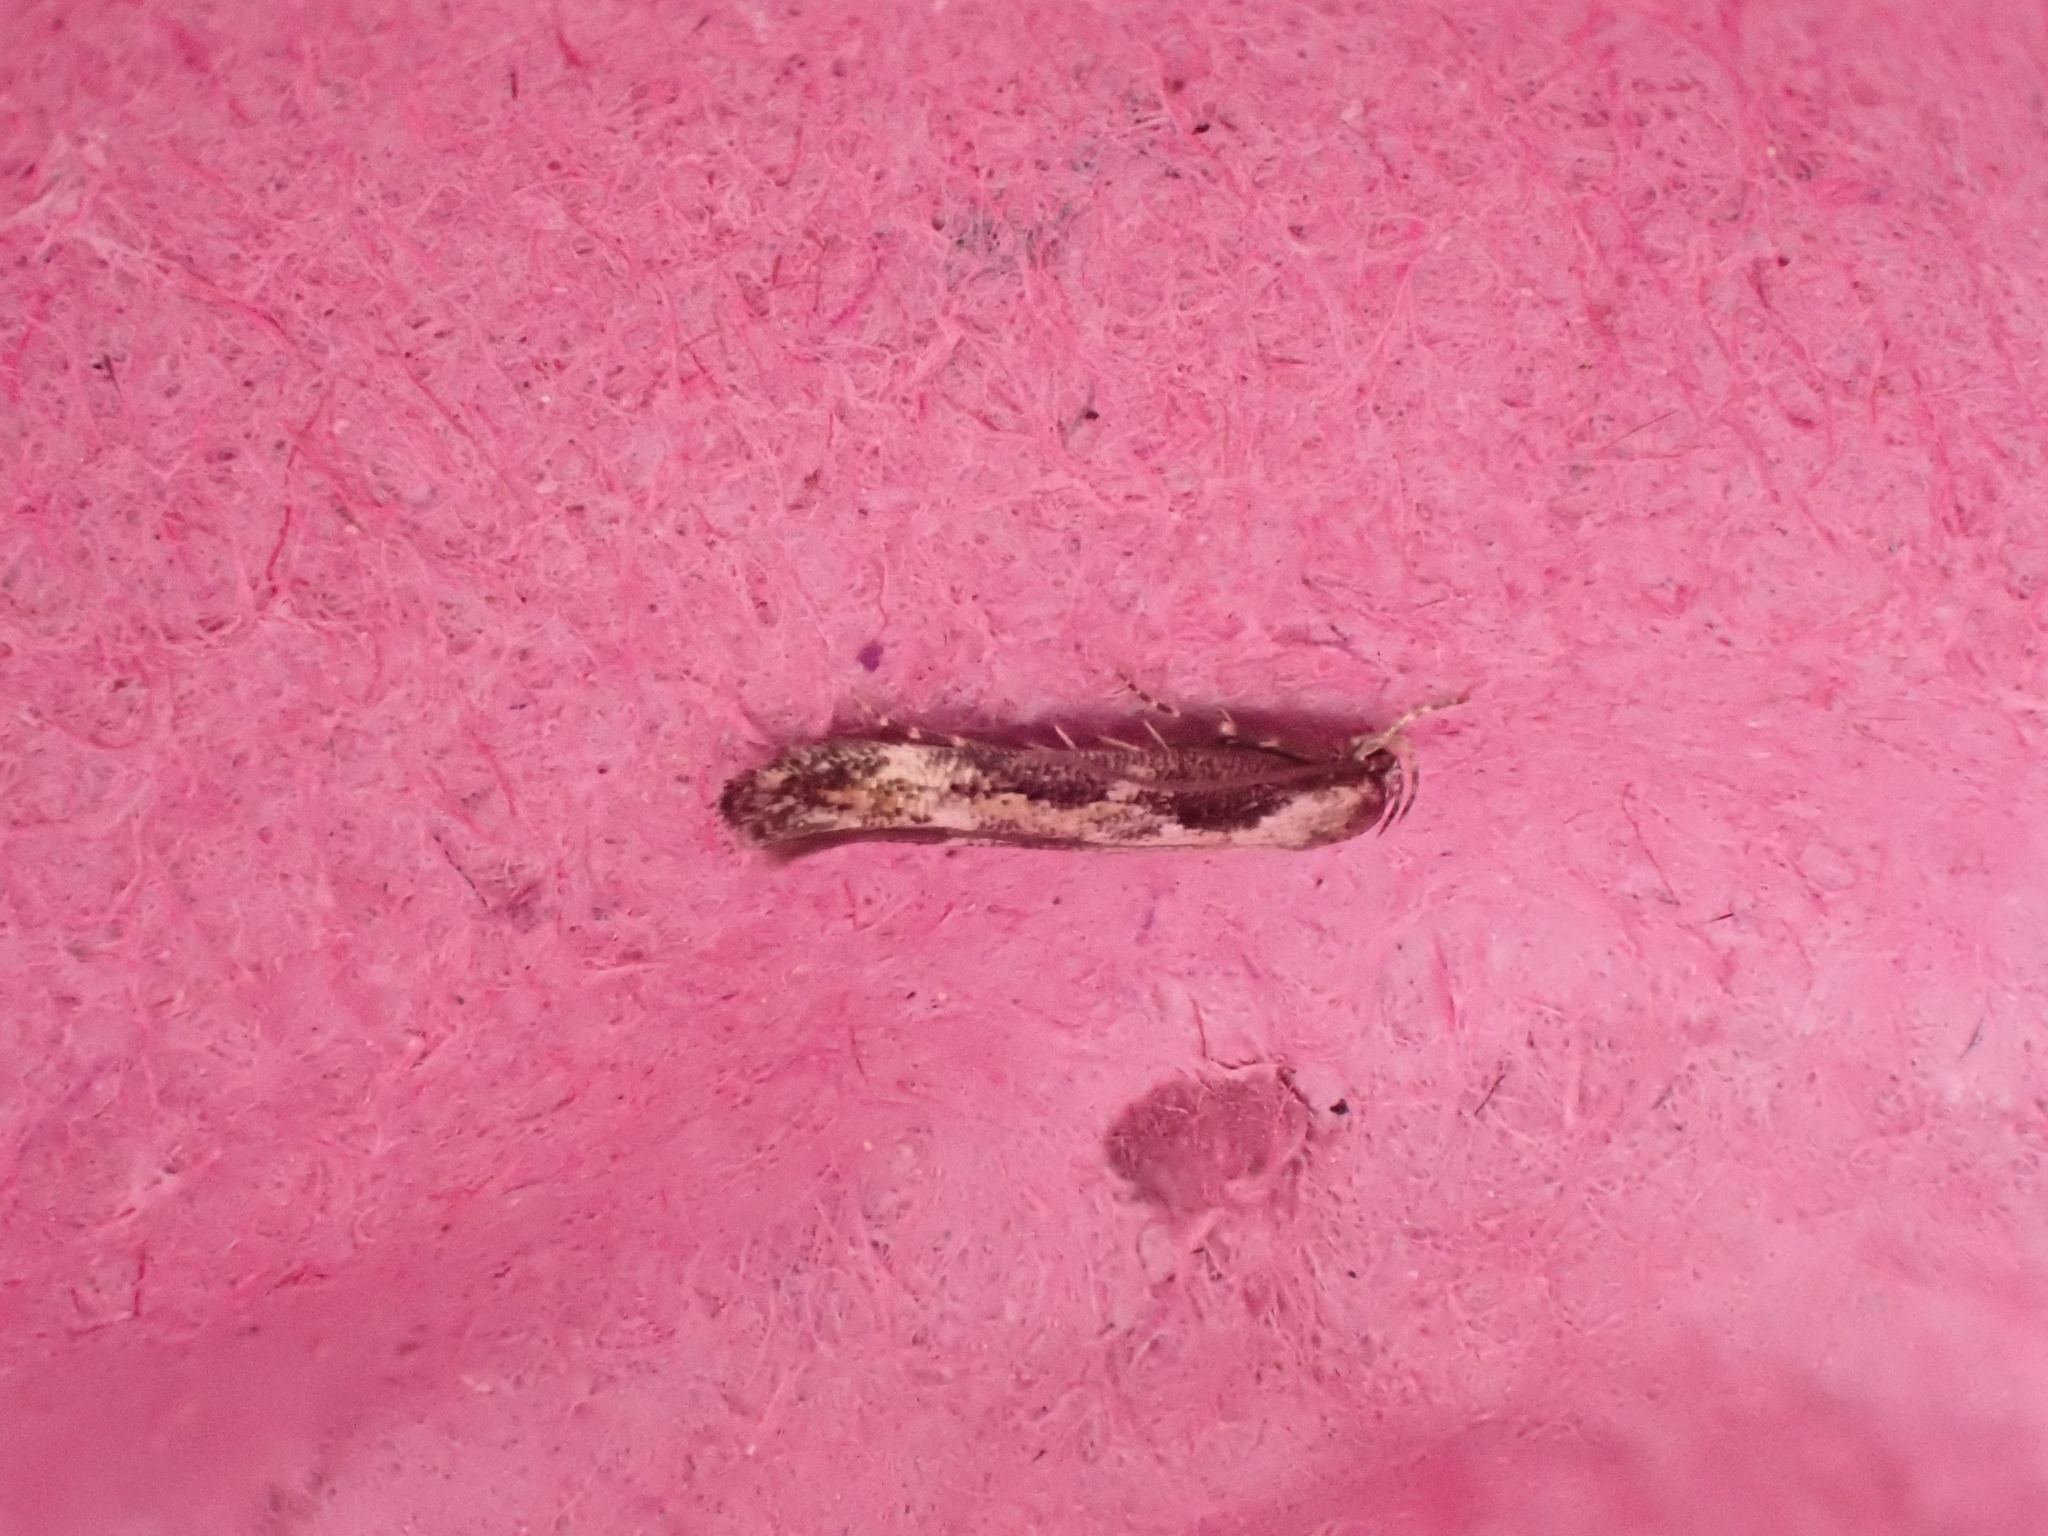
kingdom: Animalia
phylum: Arthropoda
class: Insecta
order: Lepidoptera
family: Momphidae
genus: Mompha
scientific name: Mompha decorella
